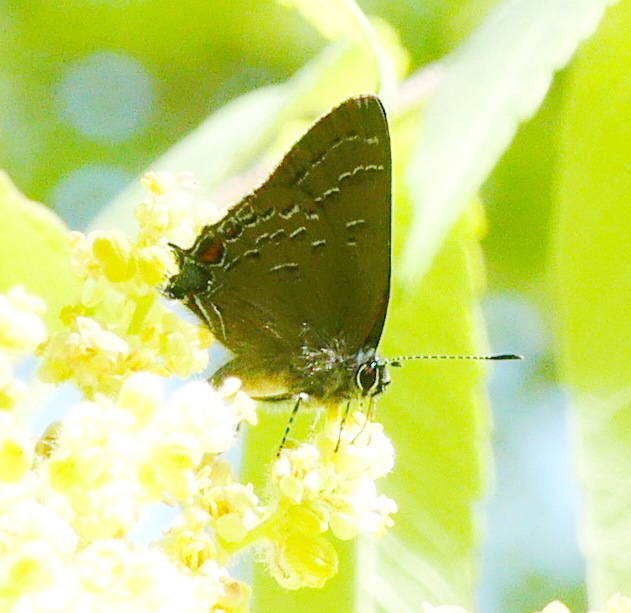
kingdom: Animalia
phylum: Arthropoda
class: Insecta
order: Lepidoptera
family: Lycaenidae
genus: Satyrium
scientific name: Satyrium calanus
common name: Banded hairstreak
